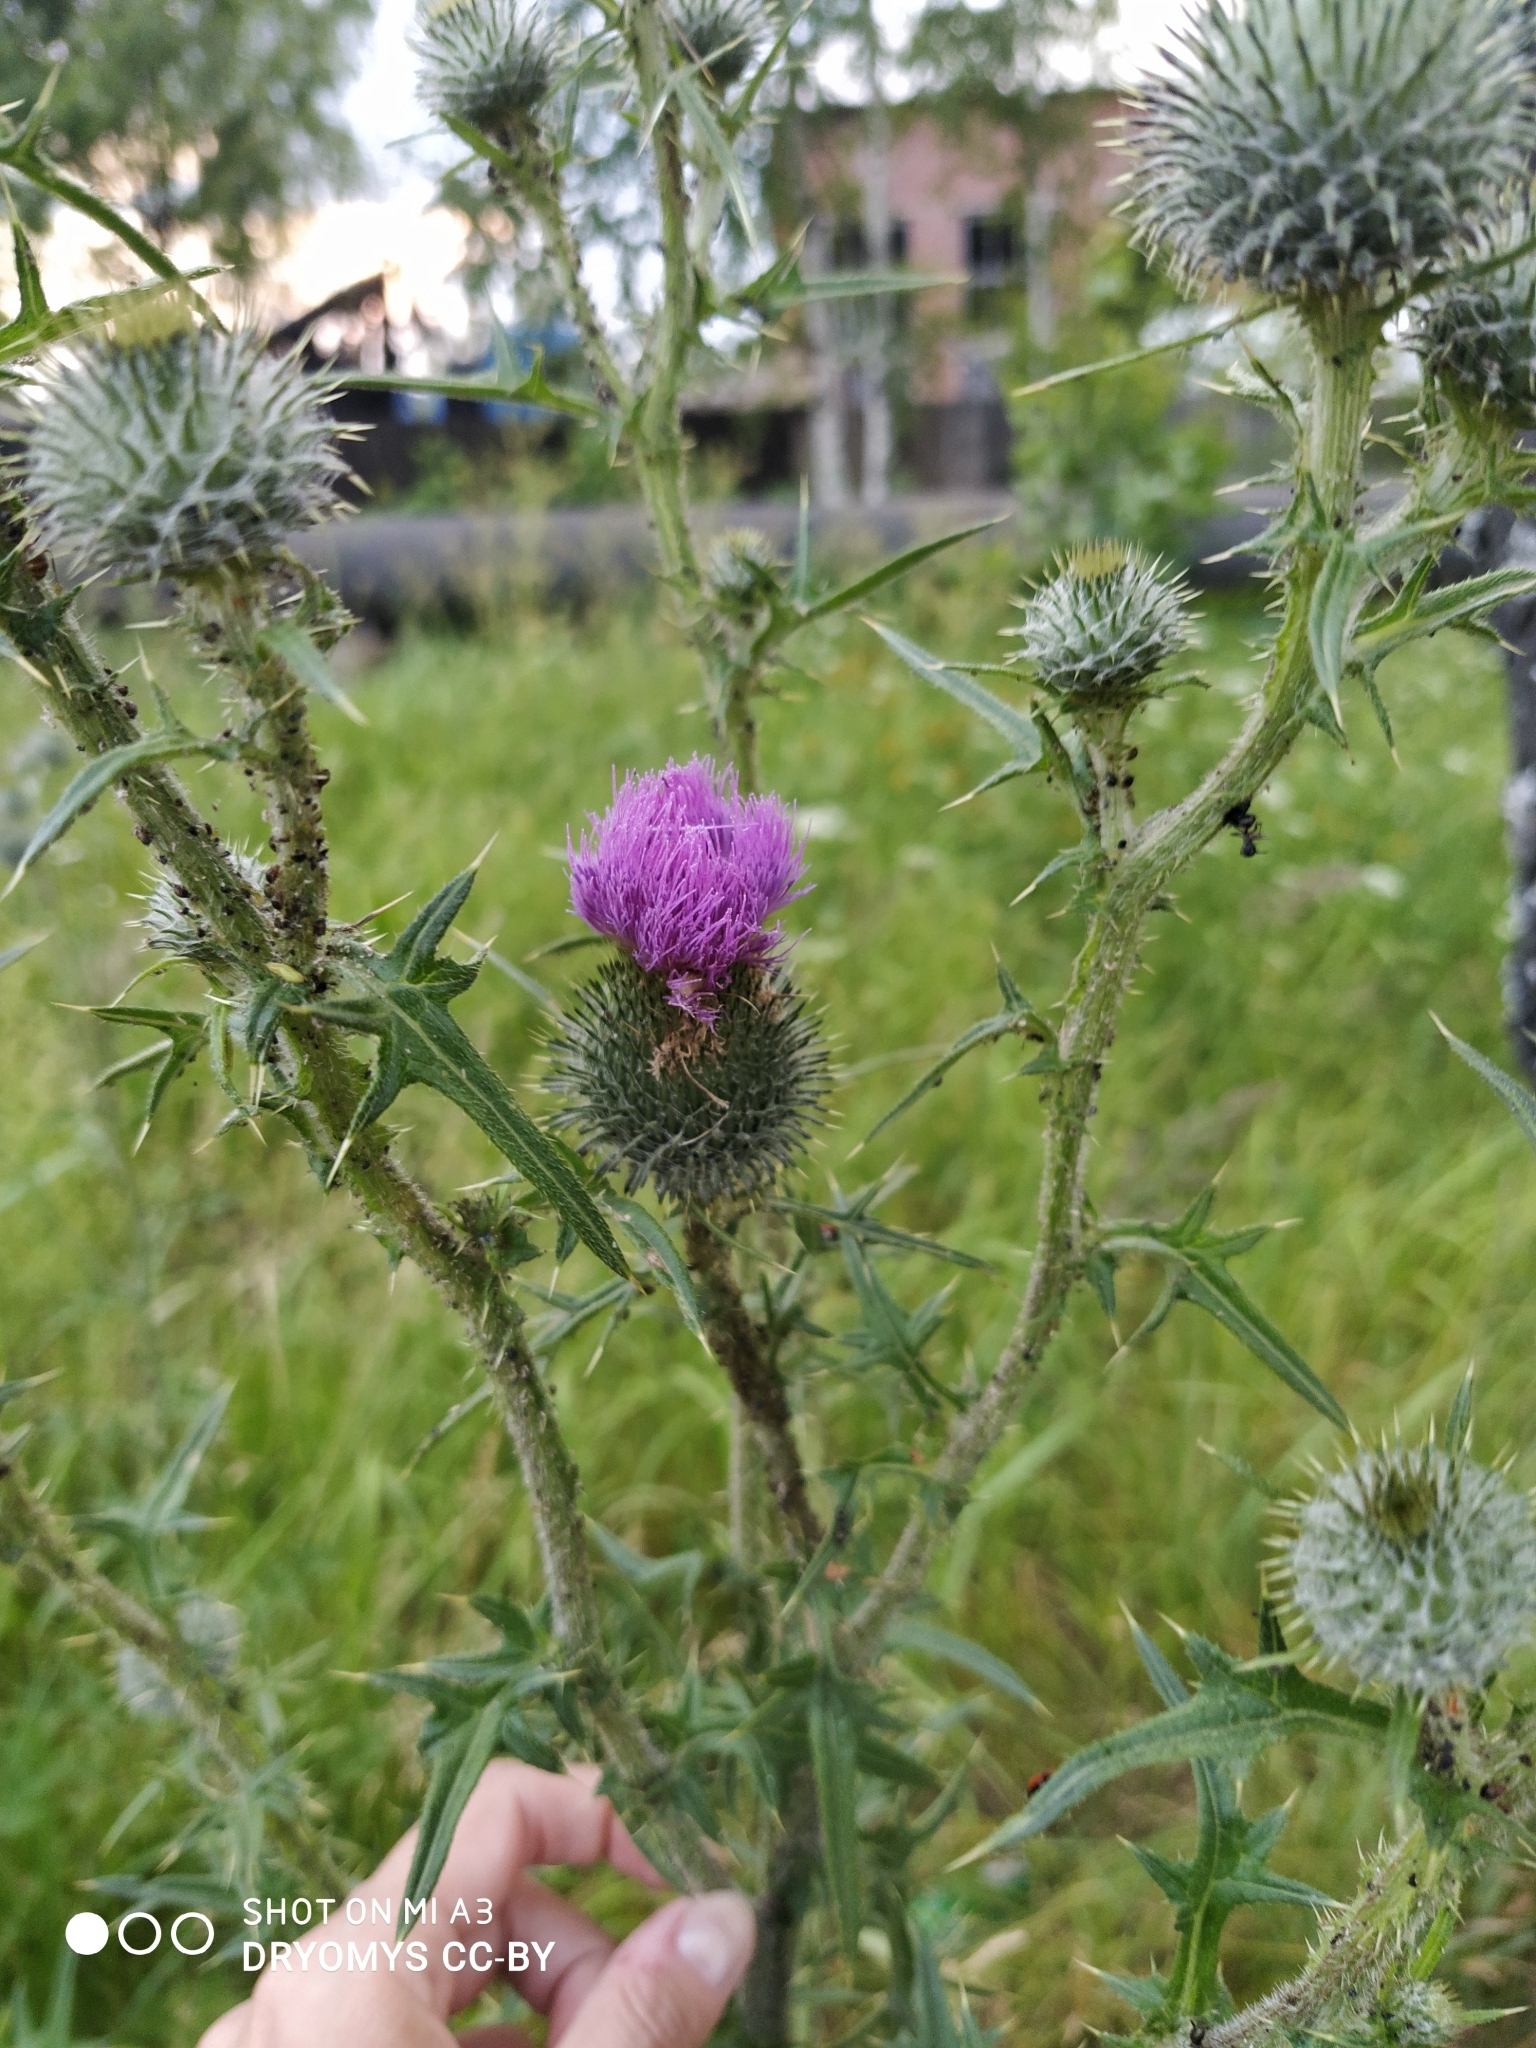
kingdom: Plantae
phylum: Tracheophyta
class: Magnoliopsida
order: Asterales
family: Asteraceae
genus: Cirsium
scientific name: Cirsium vulgare
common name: Bull thistle
